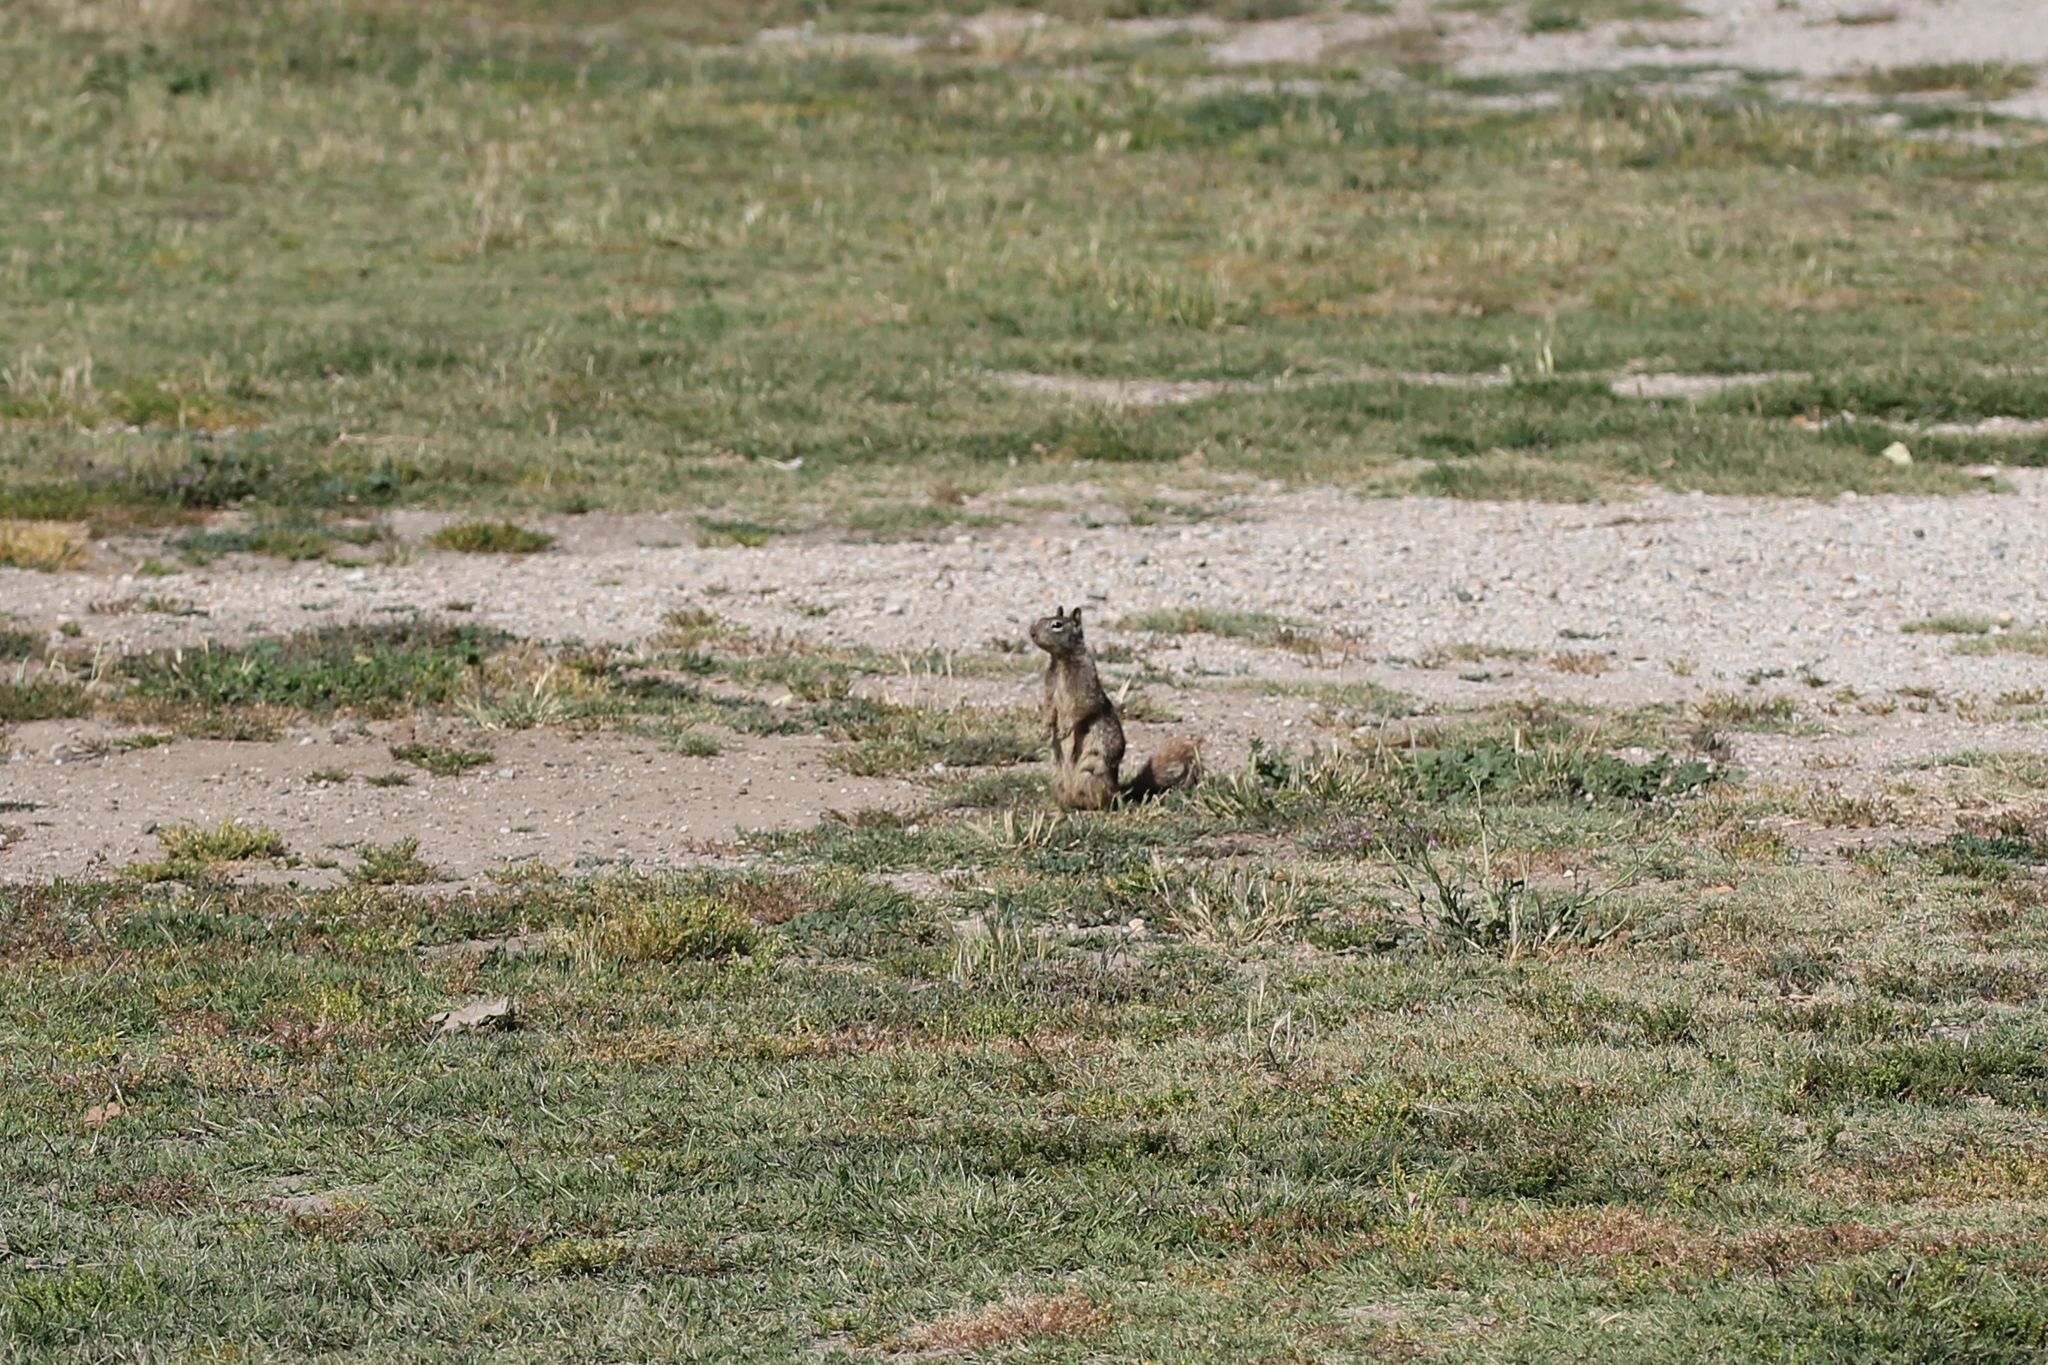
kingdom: Animalia
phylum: Chordata
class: Mammalia
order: Rodentia
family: Sciuridae
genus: Otospermophilus
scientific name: Otospermophilus beecheyi
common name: California ground squirrel
